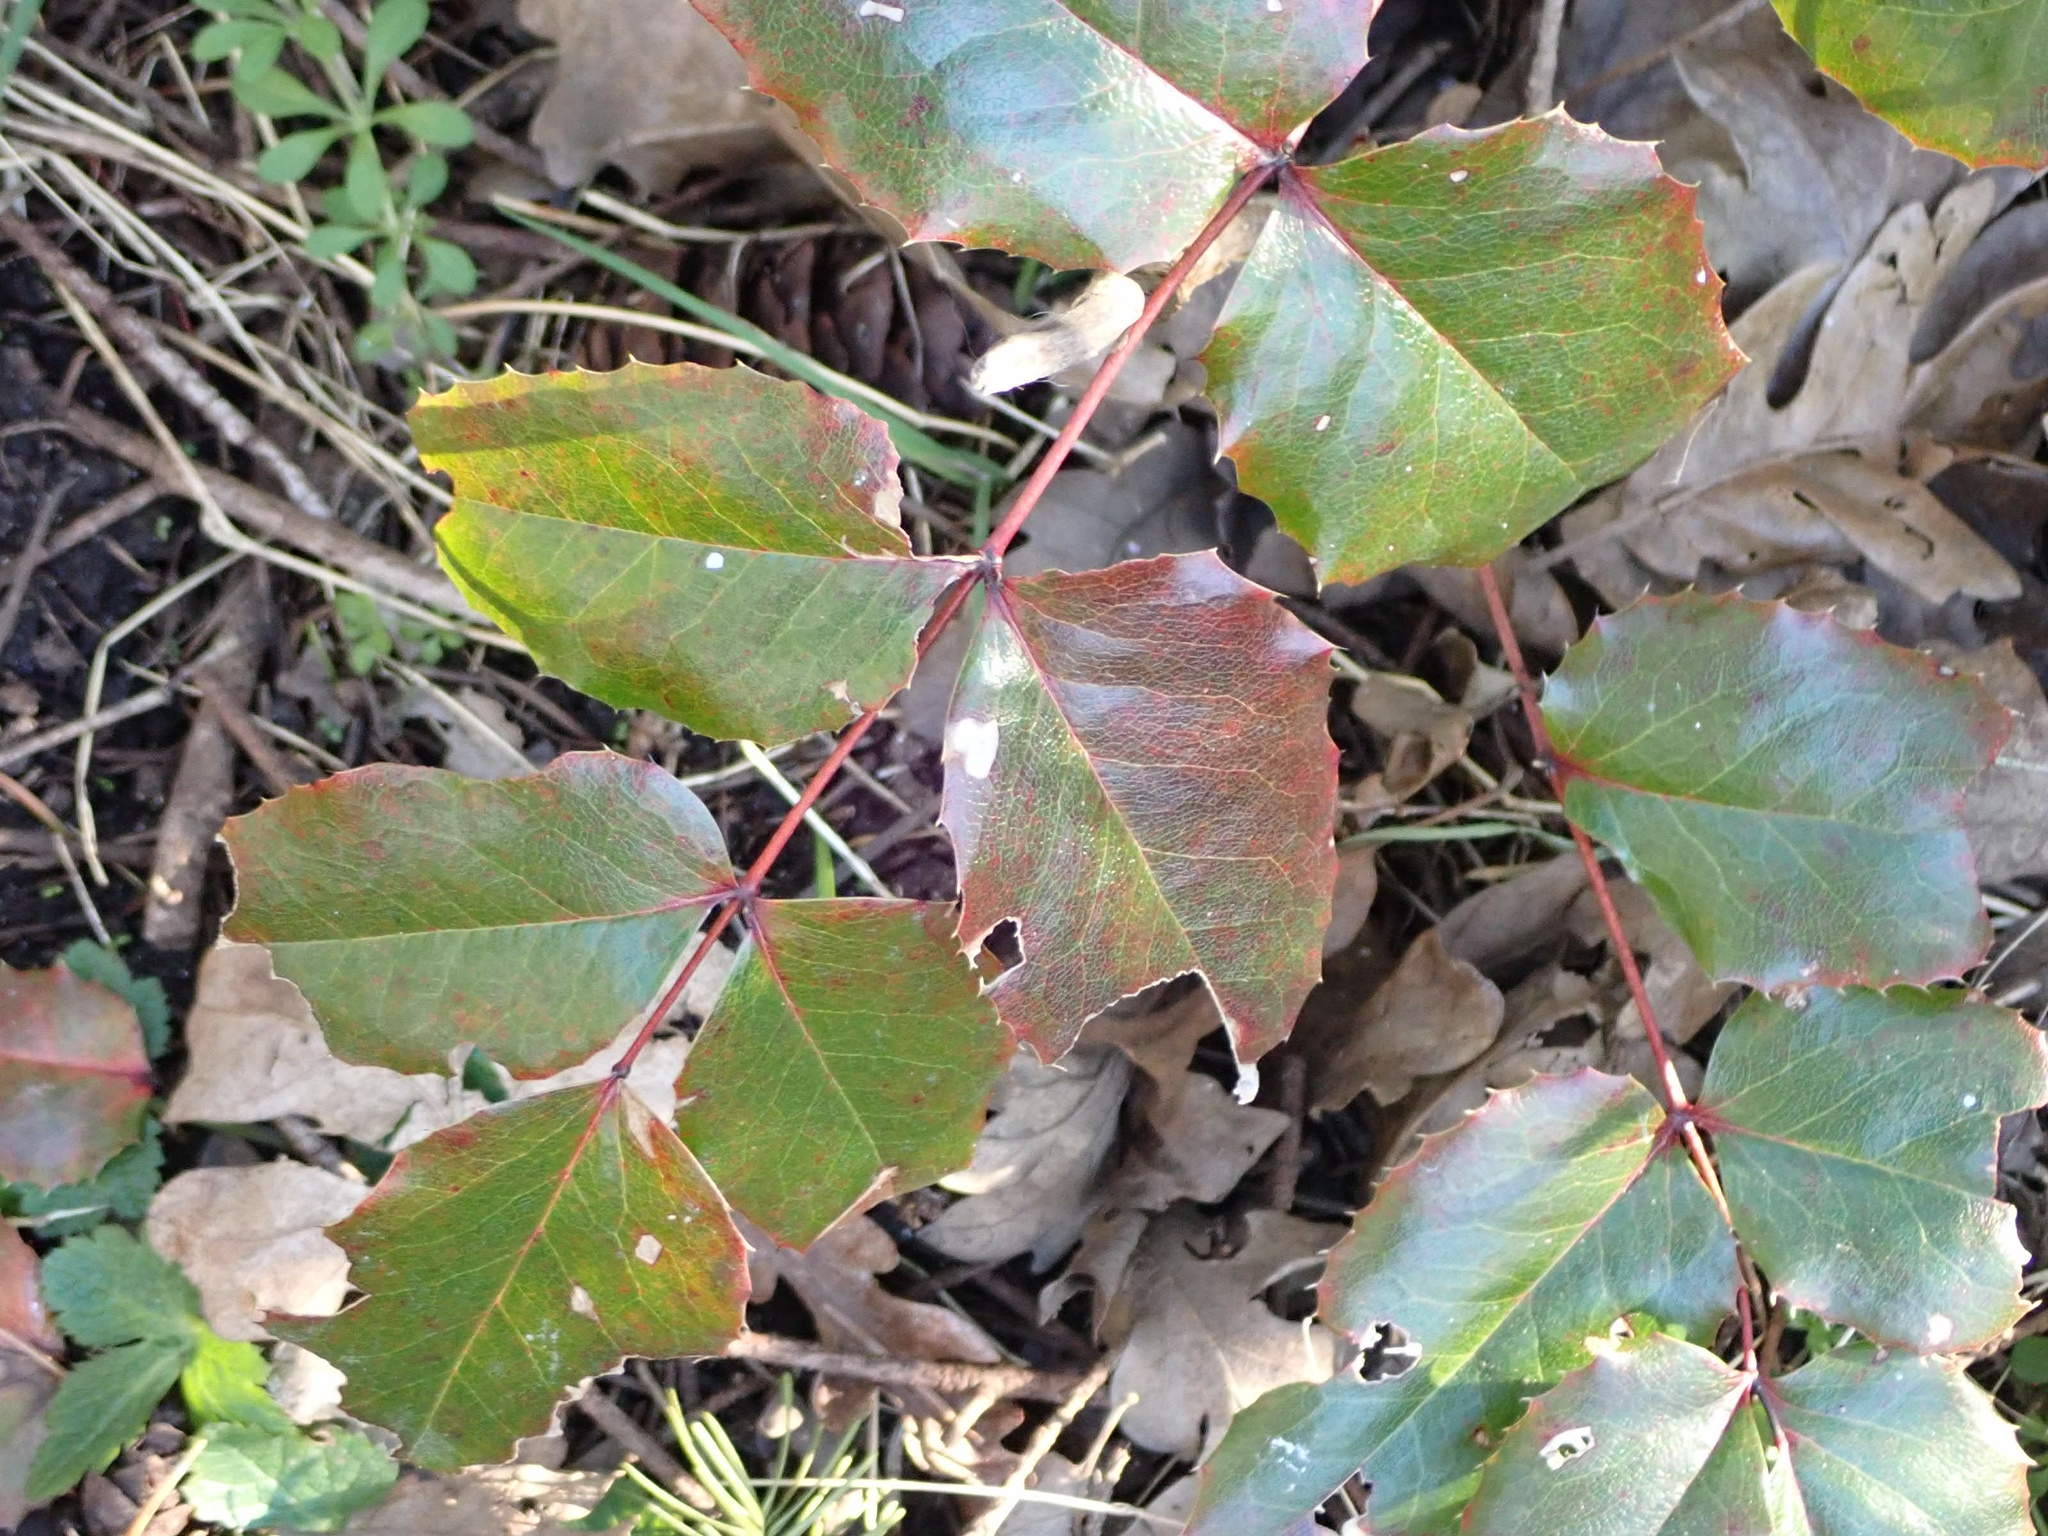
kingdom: Plantae
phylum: Tracheophyta
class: Magnoliopsida
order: Ranunculales
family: Berberidaceae
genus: Mahonia
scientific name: Mahonia aquifolium
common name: Oregon-grape
